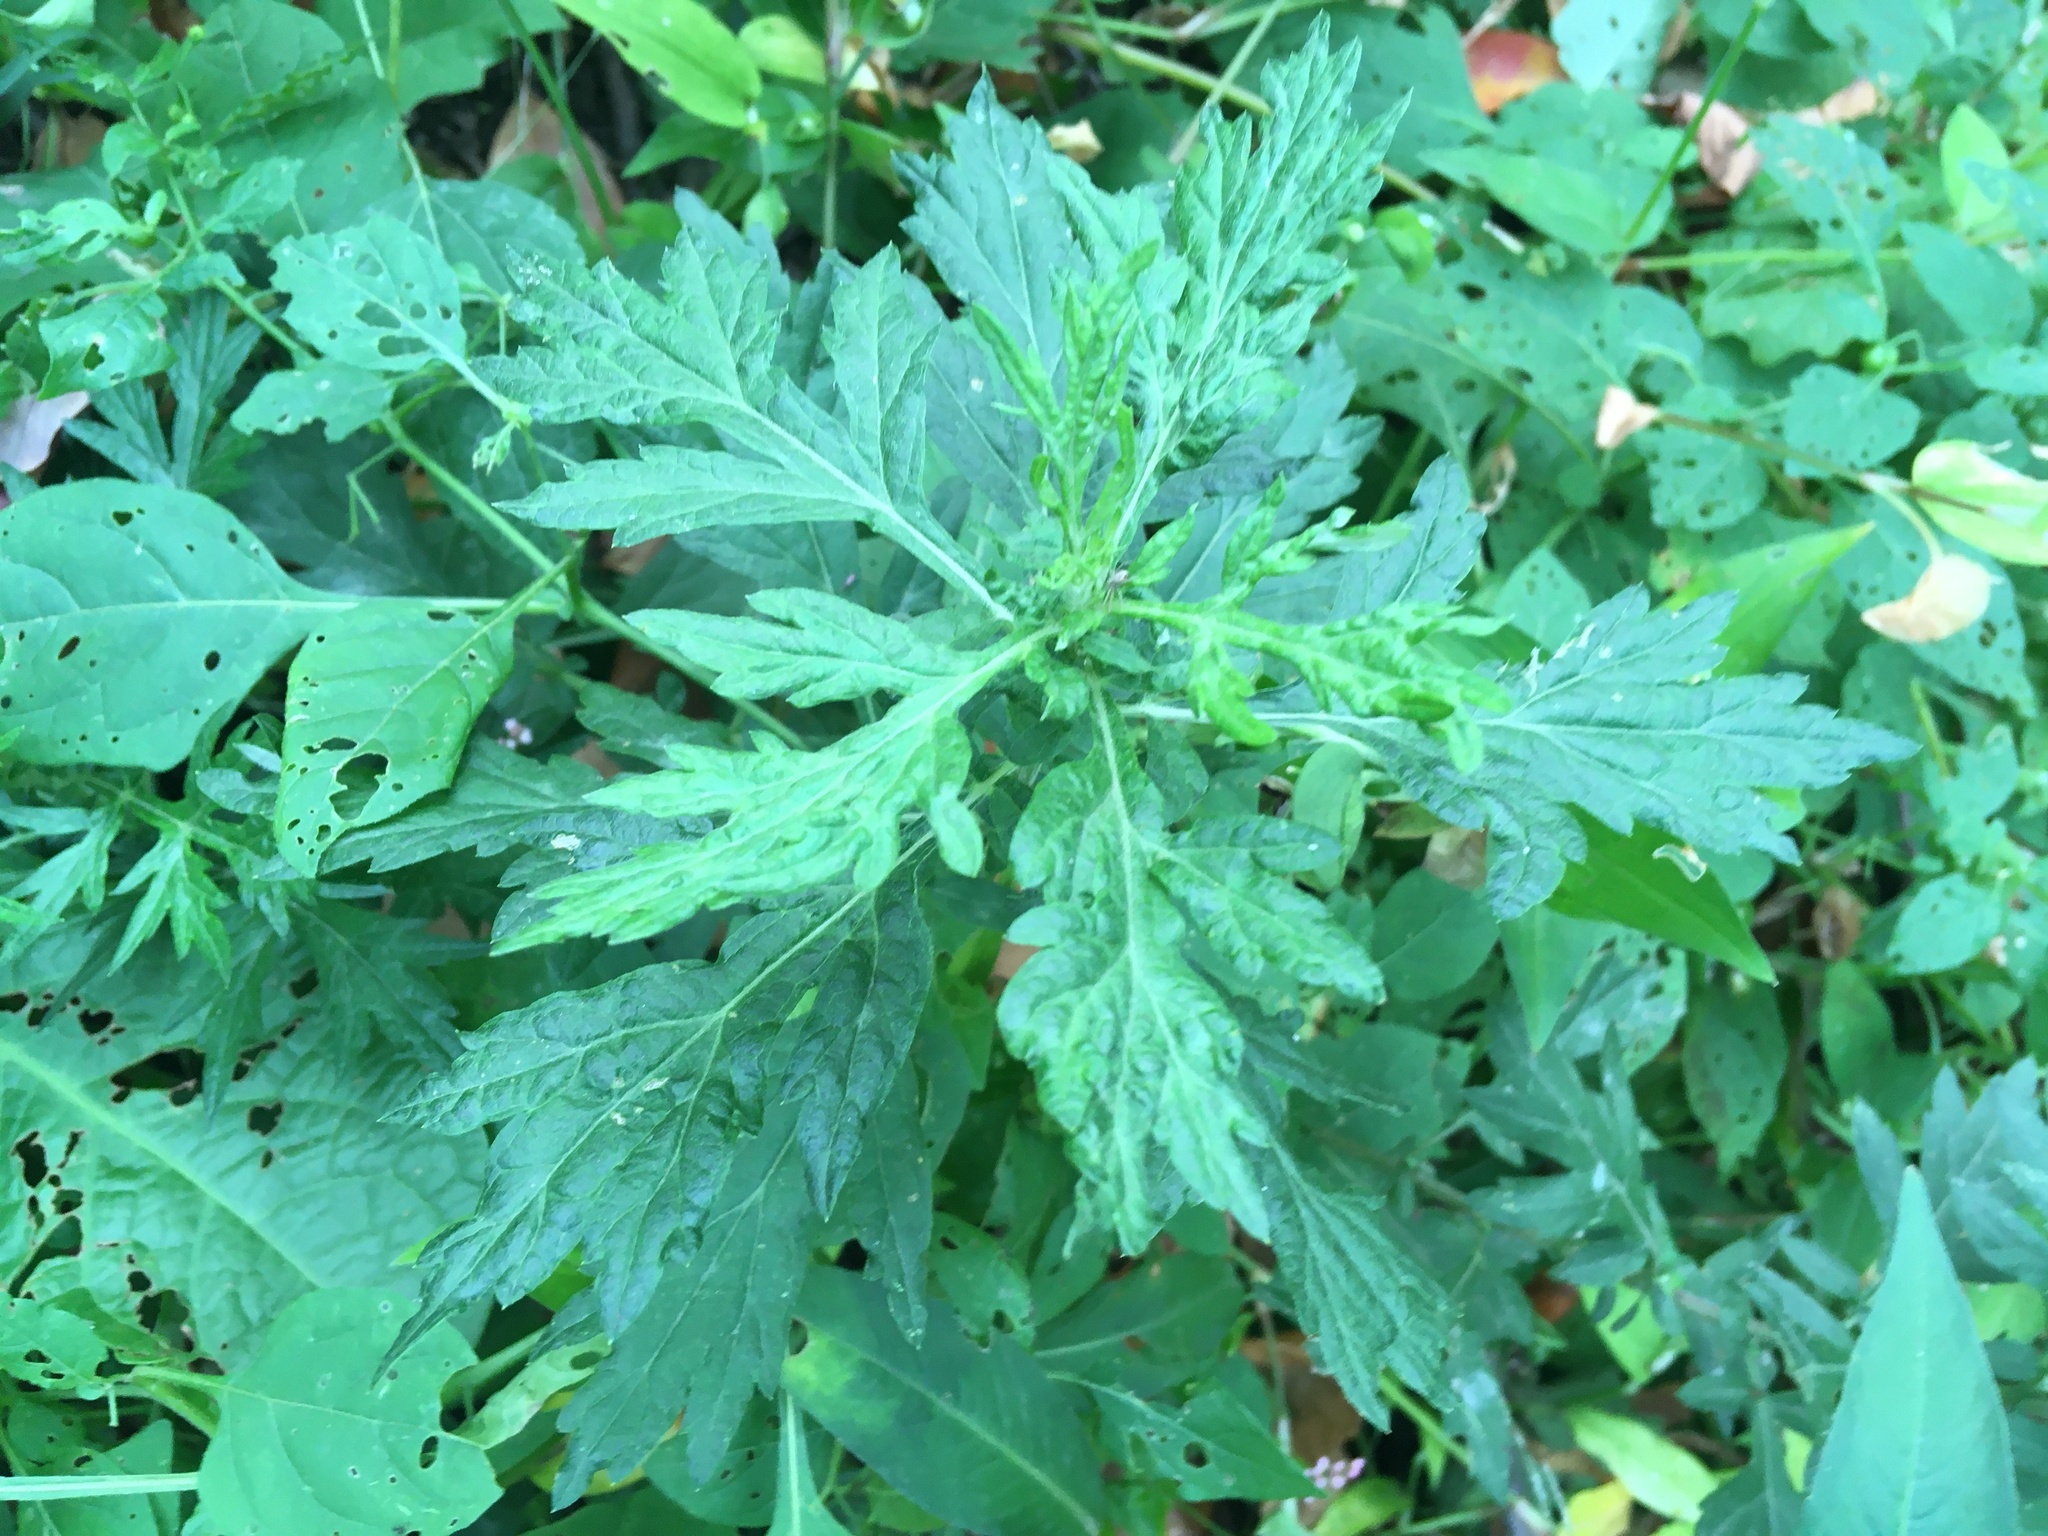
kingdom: Plantae
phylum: Tracheophyta
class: Magnoliopsida
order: Asterales
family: Asteraceae
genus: Artemisia
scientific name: Artemisia vulgaris
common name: Mugwort
